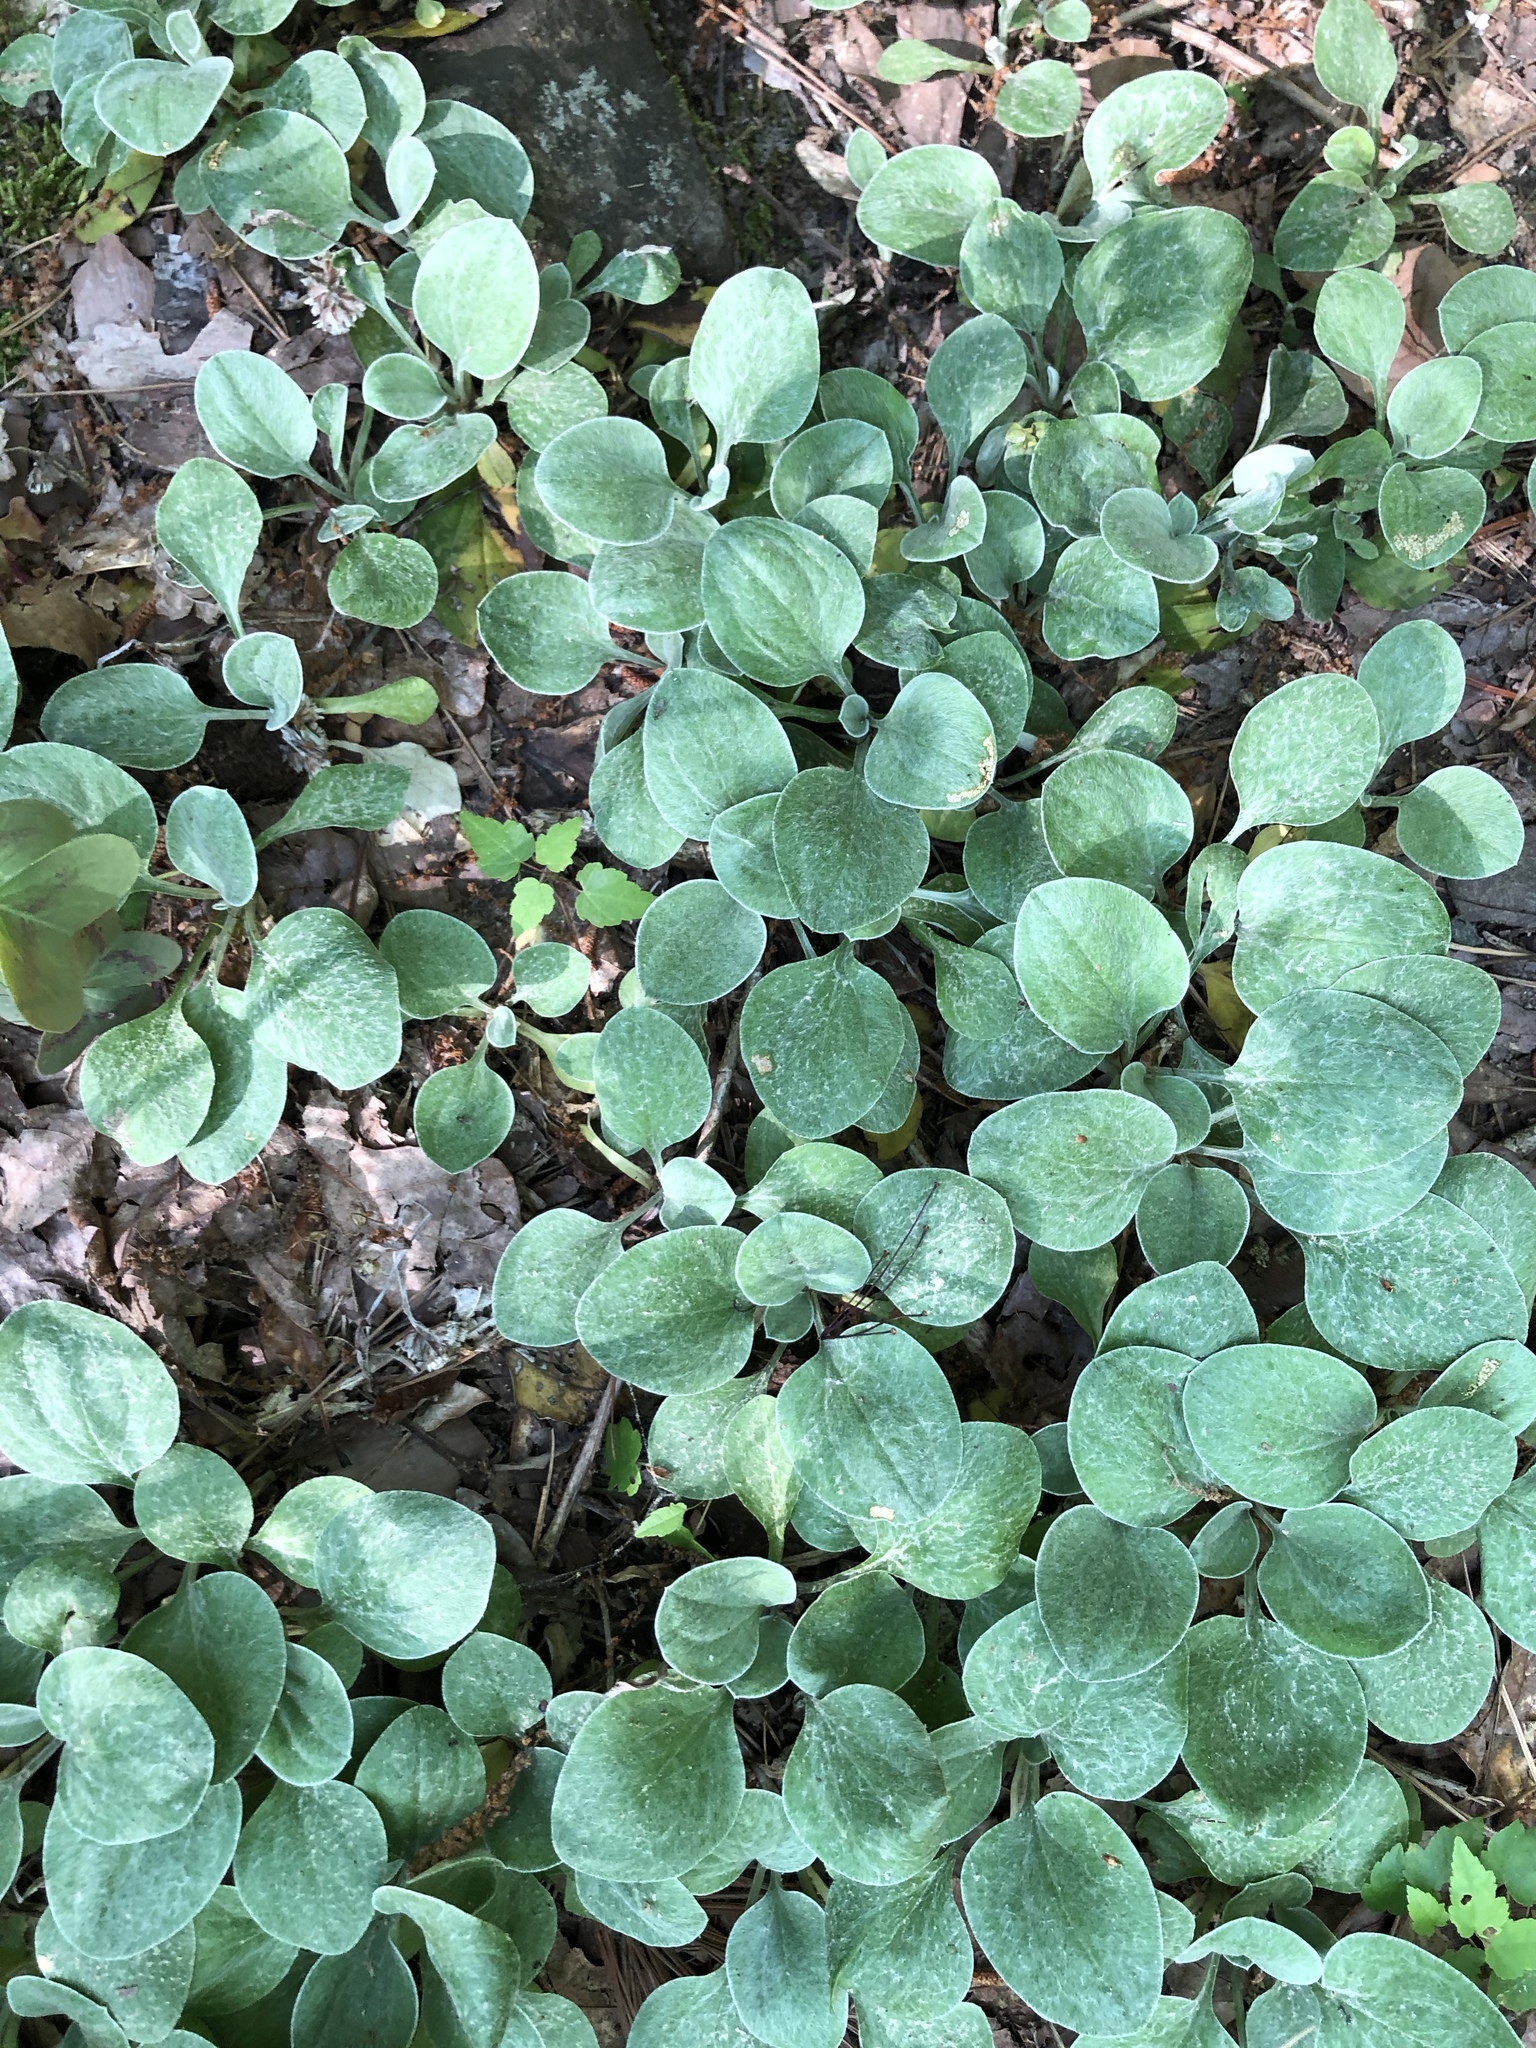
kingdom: Plantae
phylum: Tracheophyta
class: Magnoliopsida
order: Asterales
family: Asteraceae
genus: Antennaria
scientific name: Antennaria plantaginifolia
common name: Plantain-leaved pussytoes
